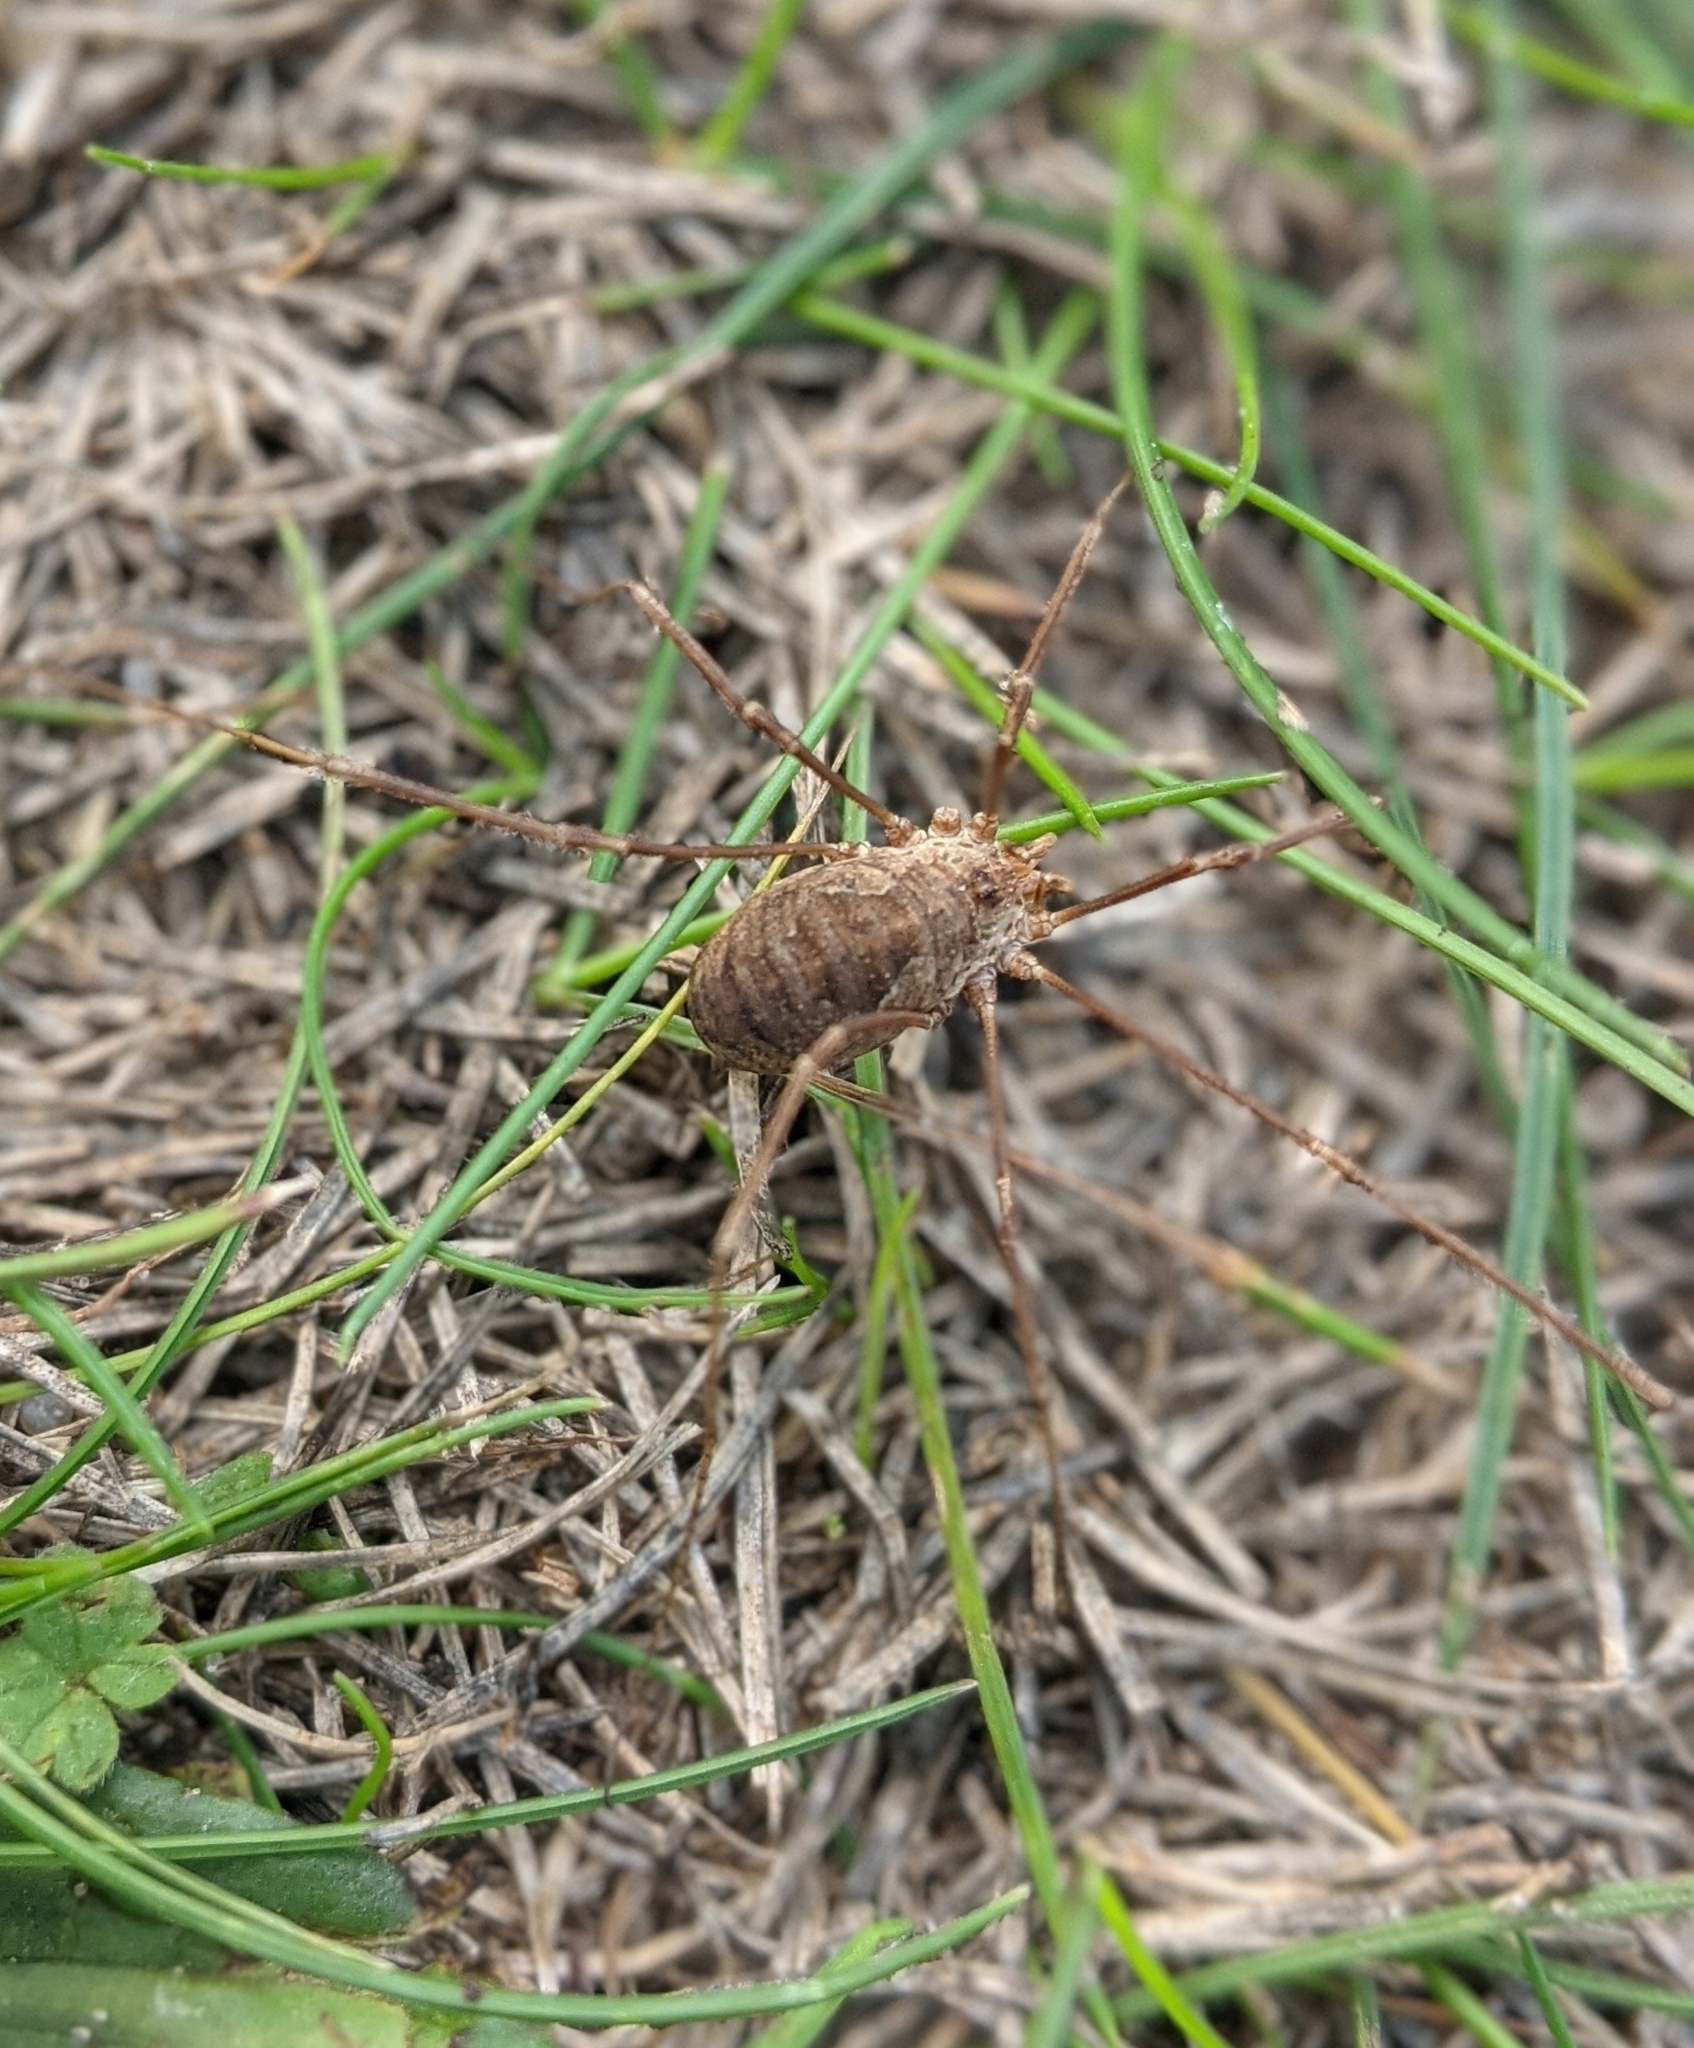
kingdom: Animalia
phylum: Arthropoda
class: Arachnida
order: Opiliones
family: Phalangiidae
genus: Phalangium
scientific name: Phalangium opilio
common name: Daddy longleg
